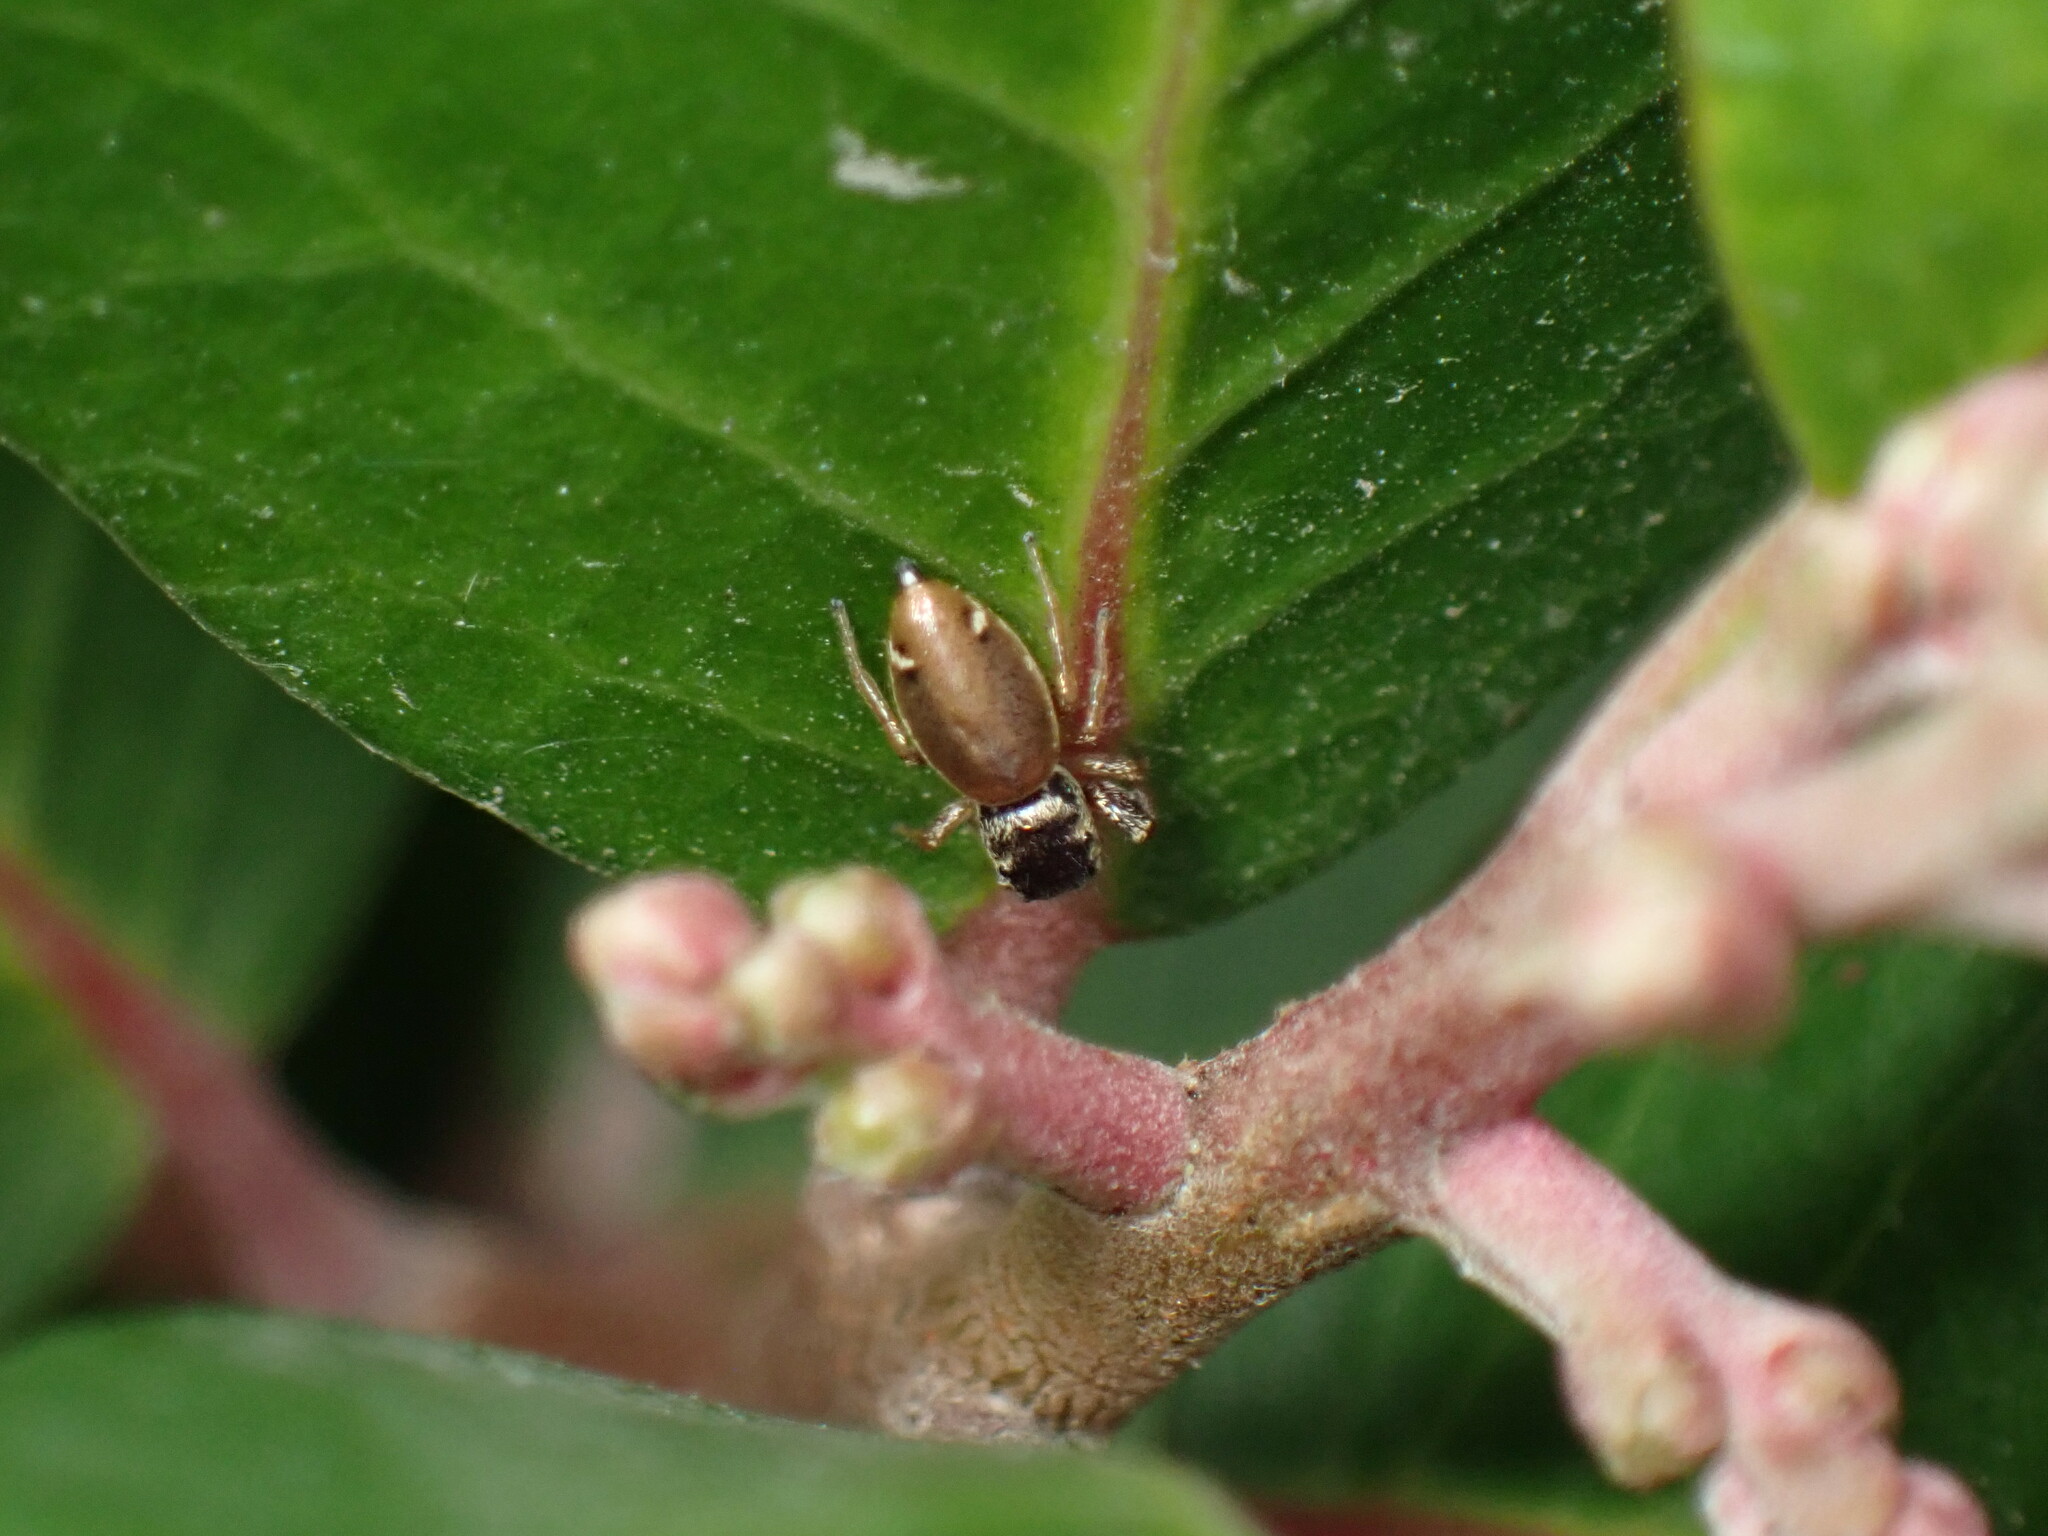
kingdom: Animalia
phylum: Arthropoda
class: Arachnida
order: Araneae
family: Salticidae
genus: Sassacus
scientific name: Sassacus vitis
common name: Jumping spiders
